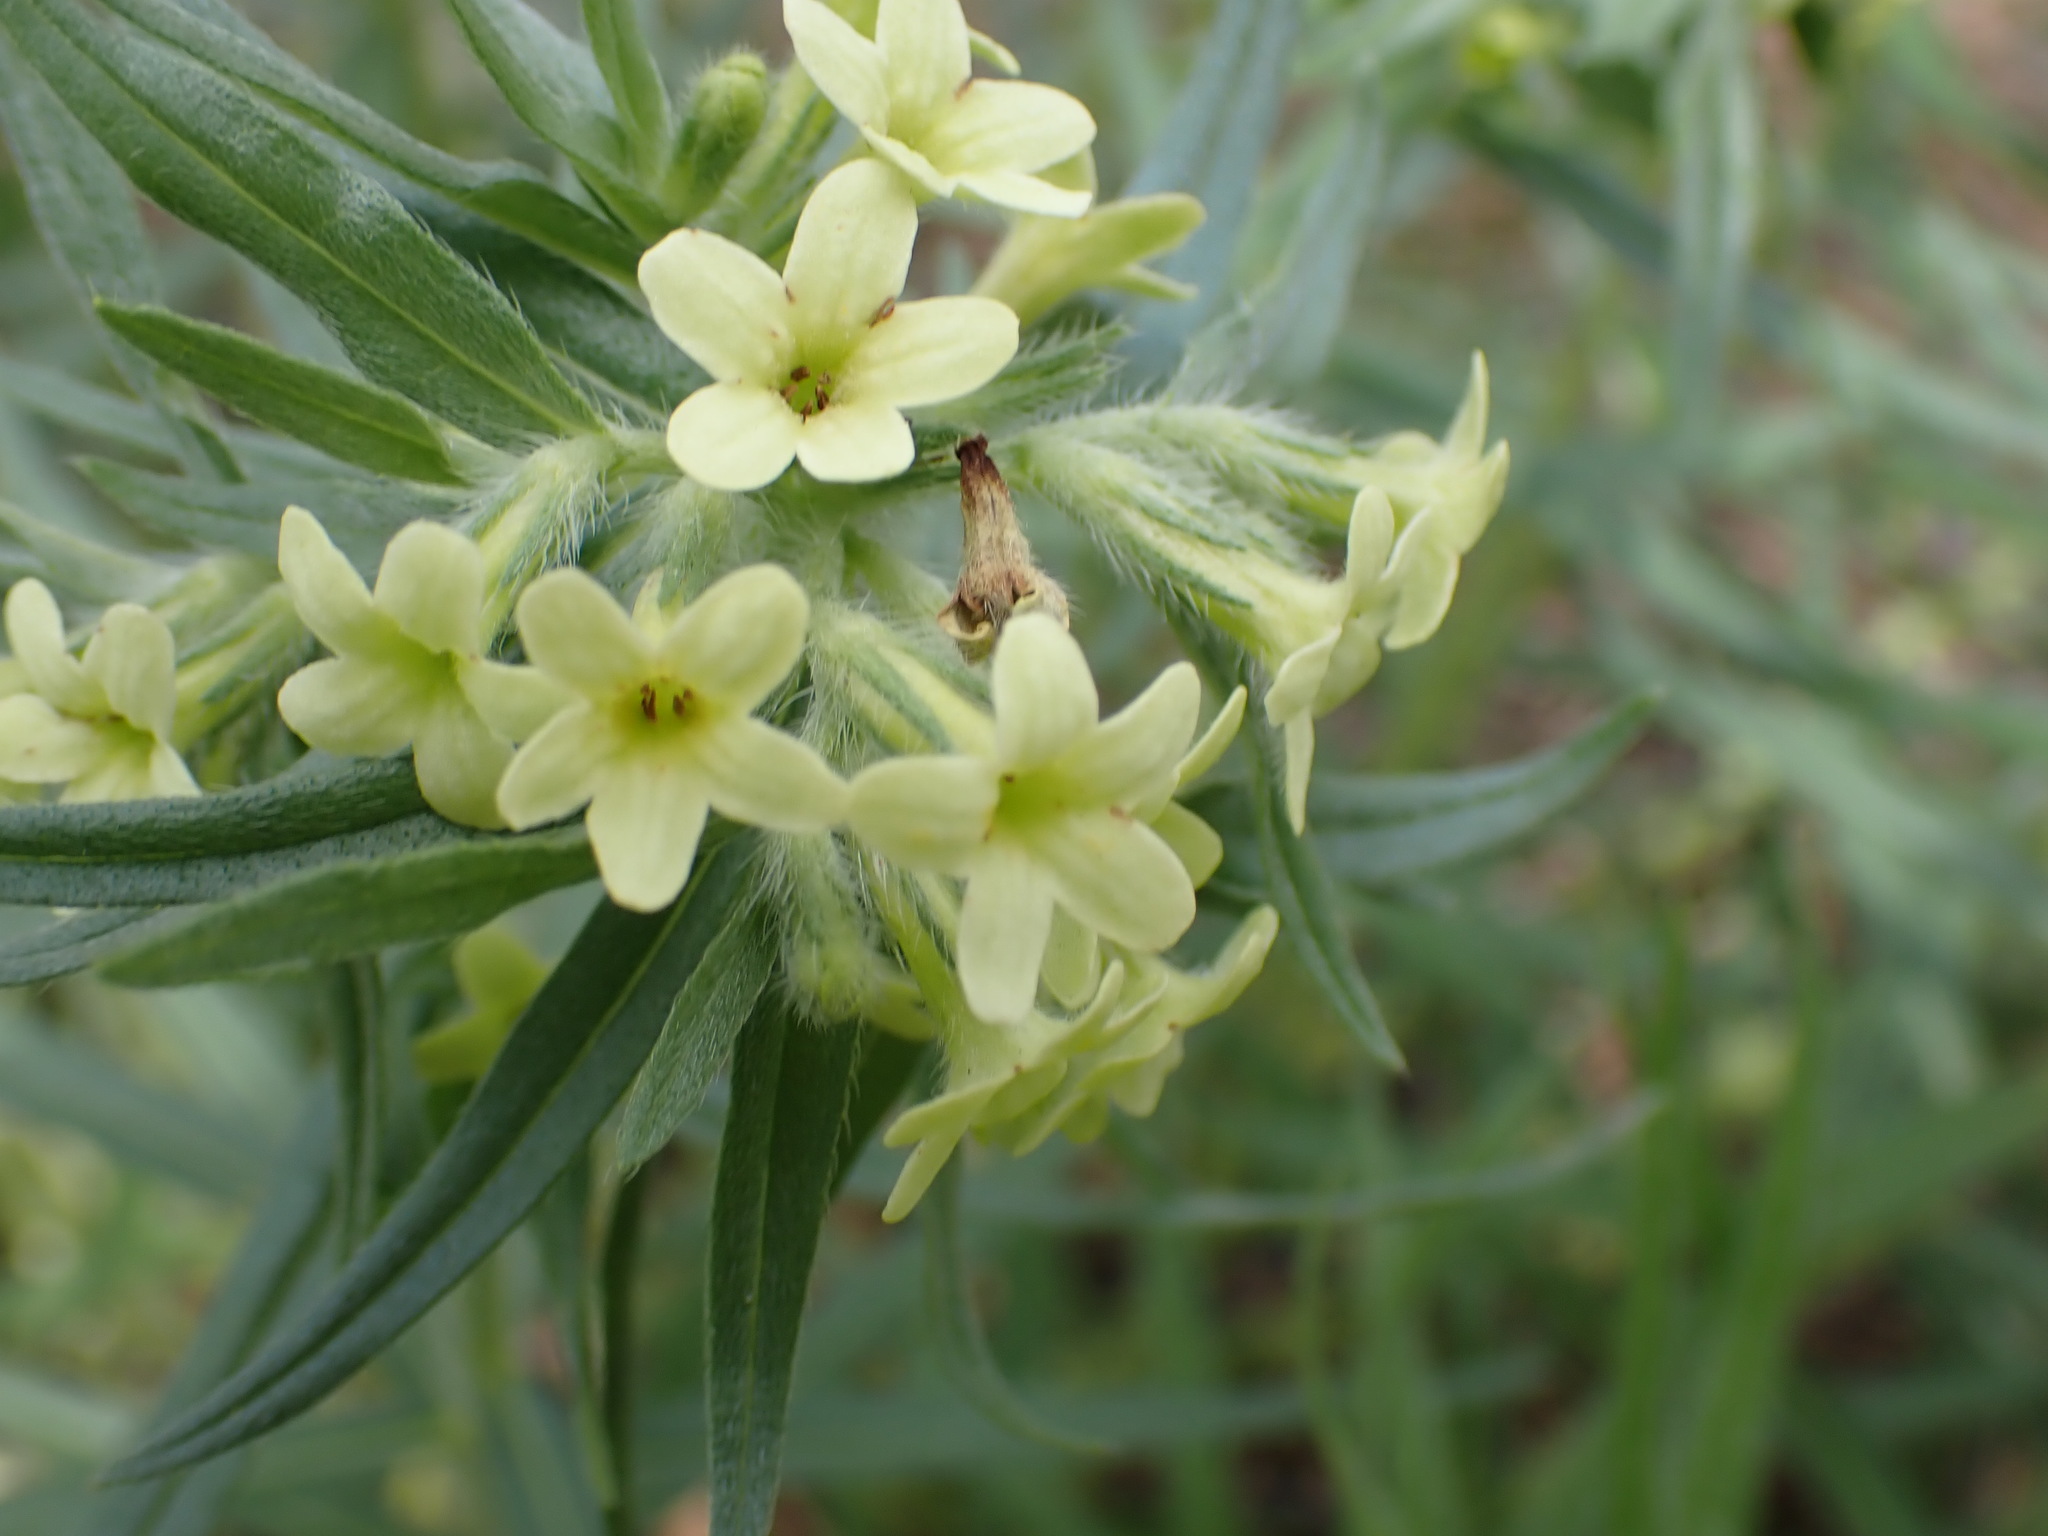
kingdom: Plantae
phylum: Tracheophyta
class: Magnoliopsida
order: Boraginales
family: Boraginaceae
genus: Lithospermum
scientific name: Lithospermum ruderale
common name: Western gromwell
